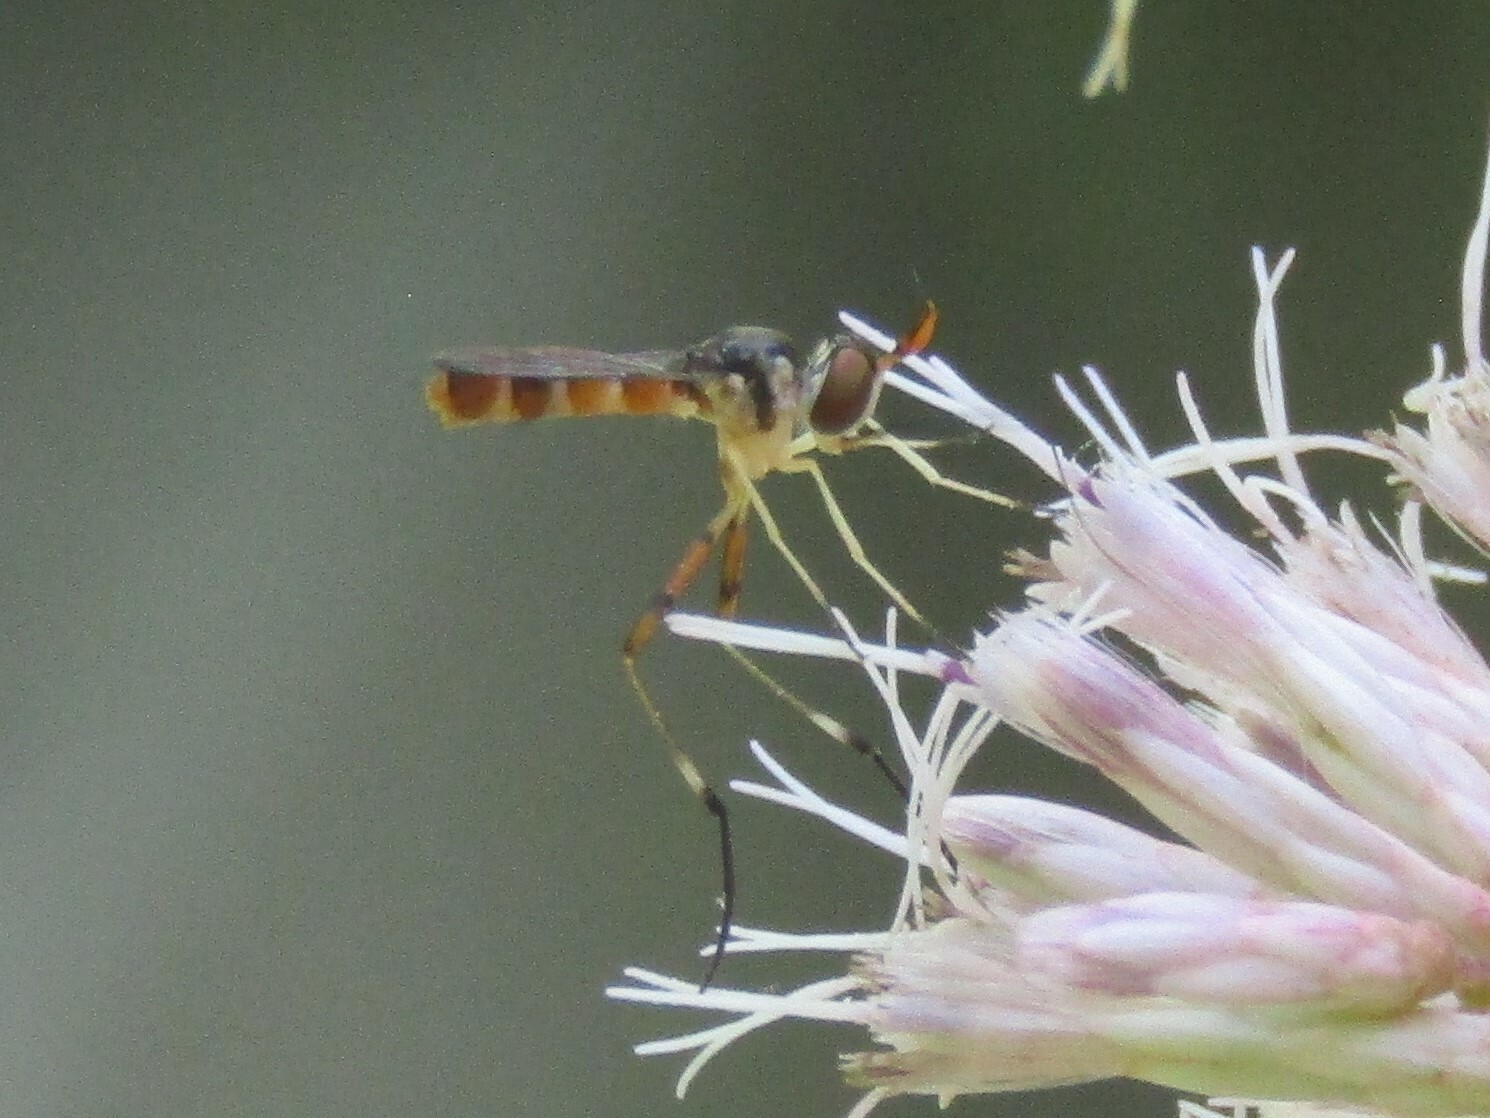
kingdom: Animalia
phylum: Arthropoda
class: Insecta
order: Diptera
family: Conopidae
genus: Stylogaster
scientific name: Stylogaster neglecta
